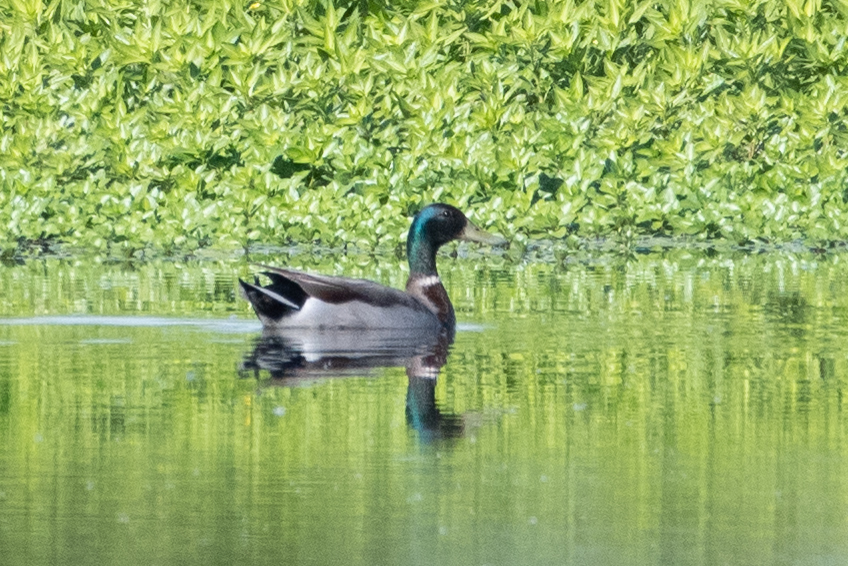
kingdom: Animalia
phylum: Chordata
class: Aves
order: Anseriformes
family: Anatidae
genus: Anas
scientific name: Anas platyrhynchos
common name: Mallard
